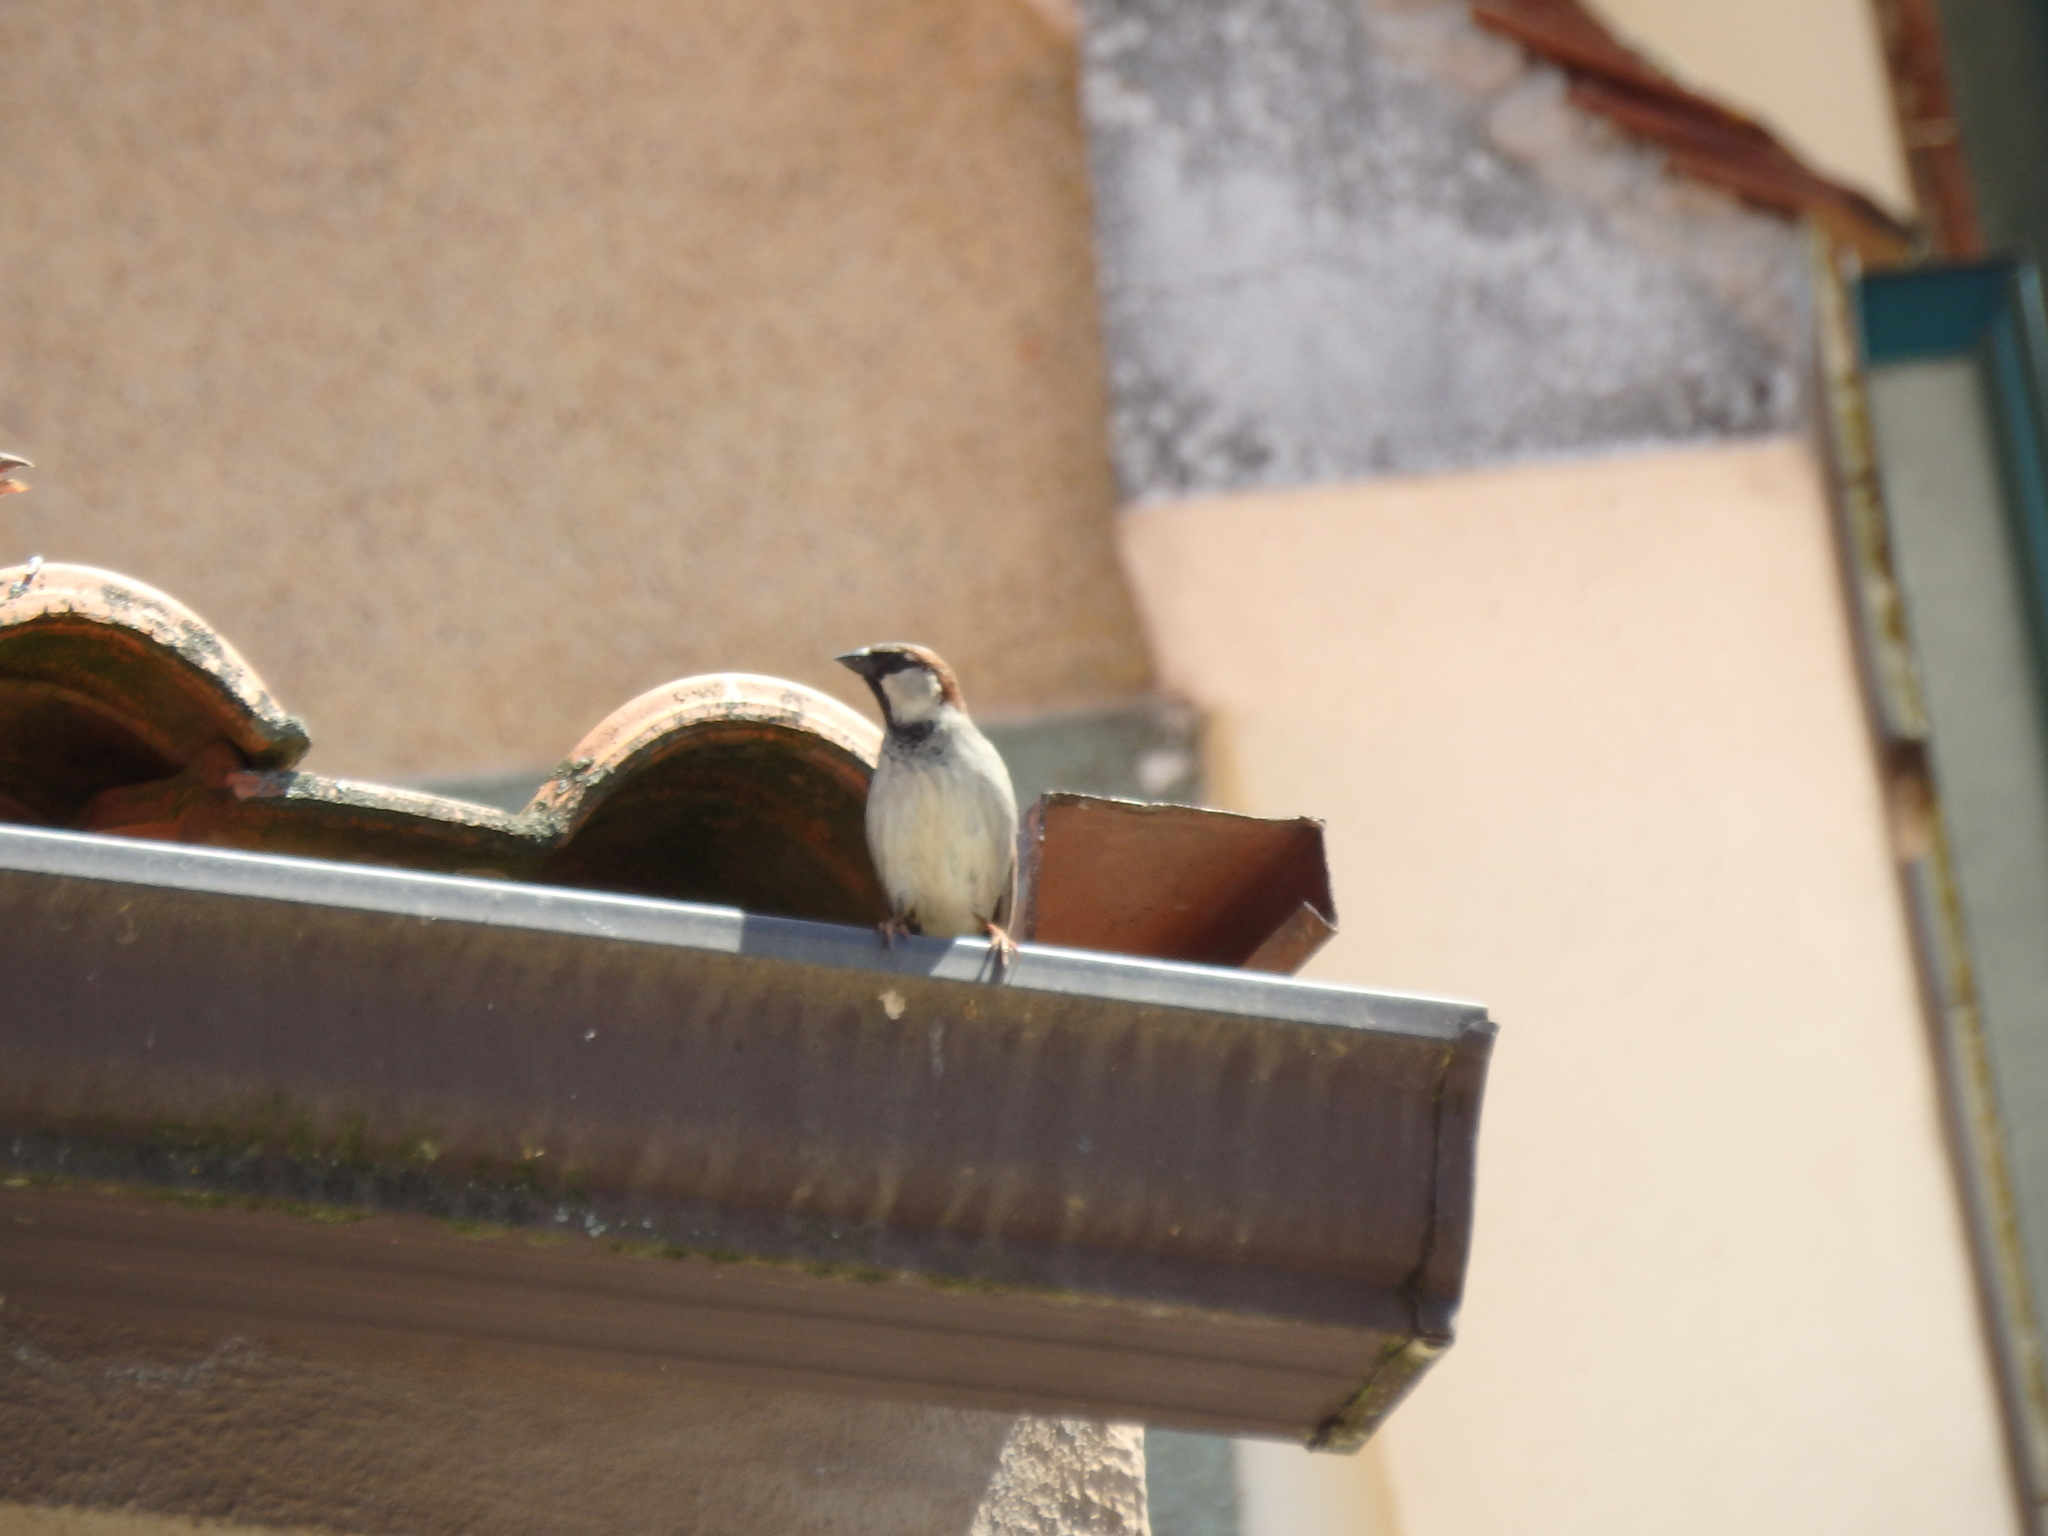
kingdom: Animalia
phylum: Chordata
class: Aves
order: Passeriformes
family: Passeridae
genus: Passer
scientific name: Passer domesticus
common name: House sparrow
